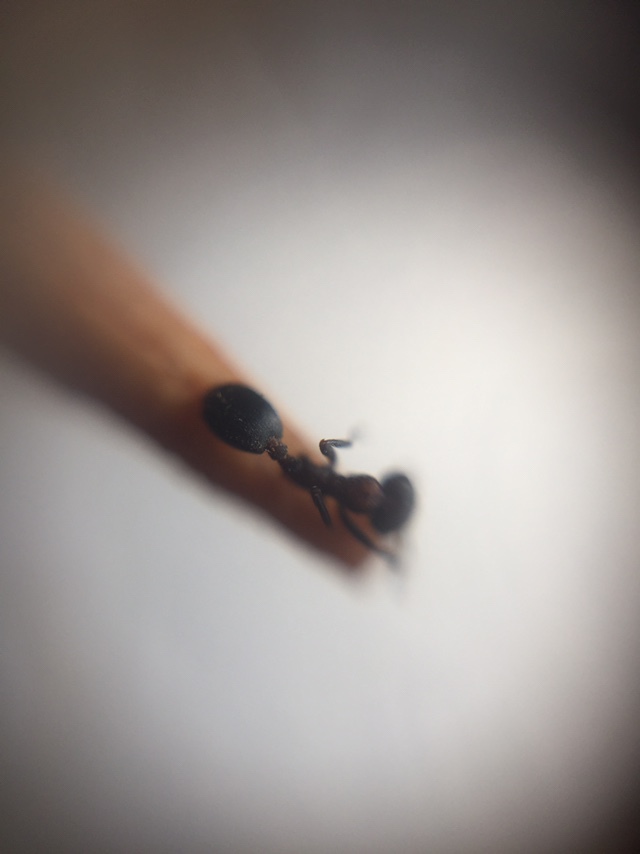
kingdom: Animalia
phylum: Arthropoda
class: Insecta
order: Hymenoptera
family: Formicidae
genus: Monomorium
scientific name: Monomorium indicum
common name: Ant
